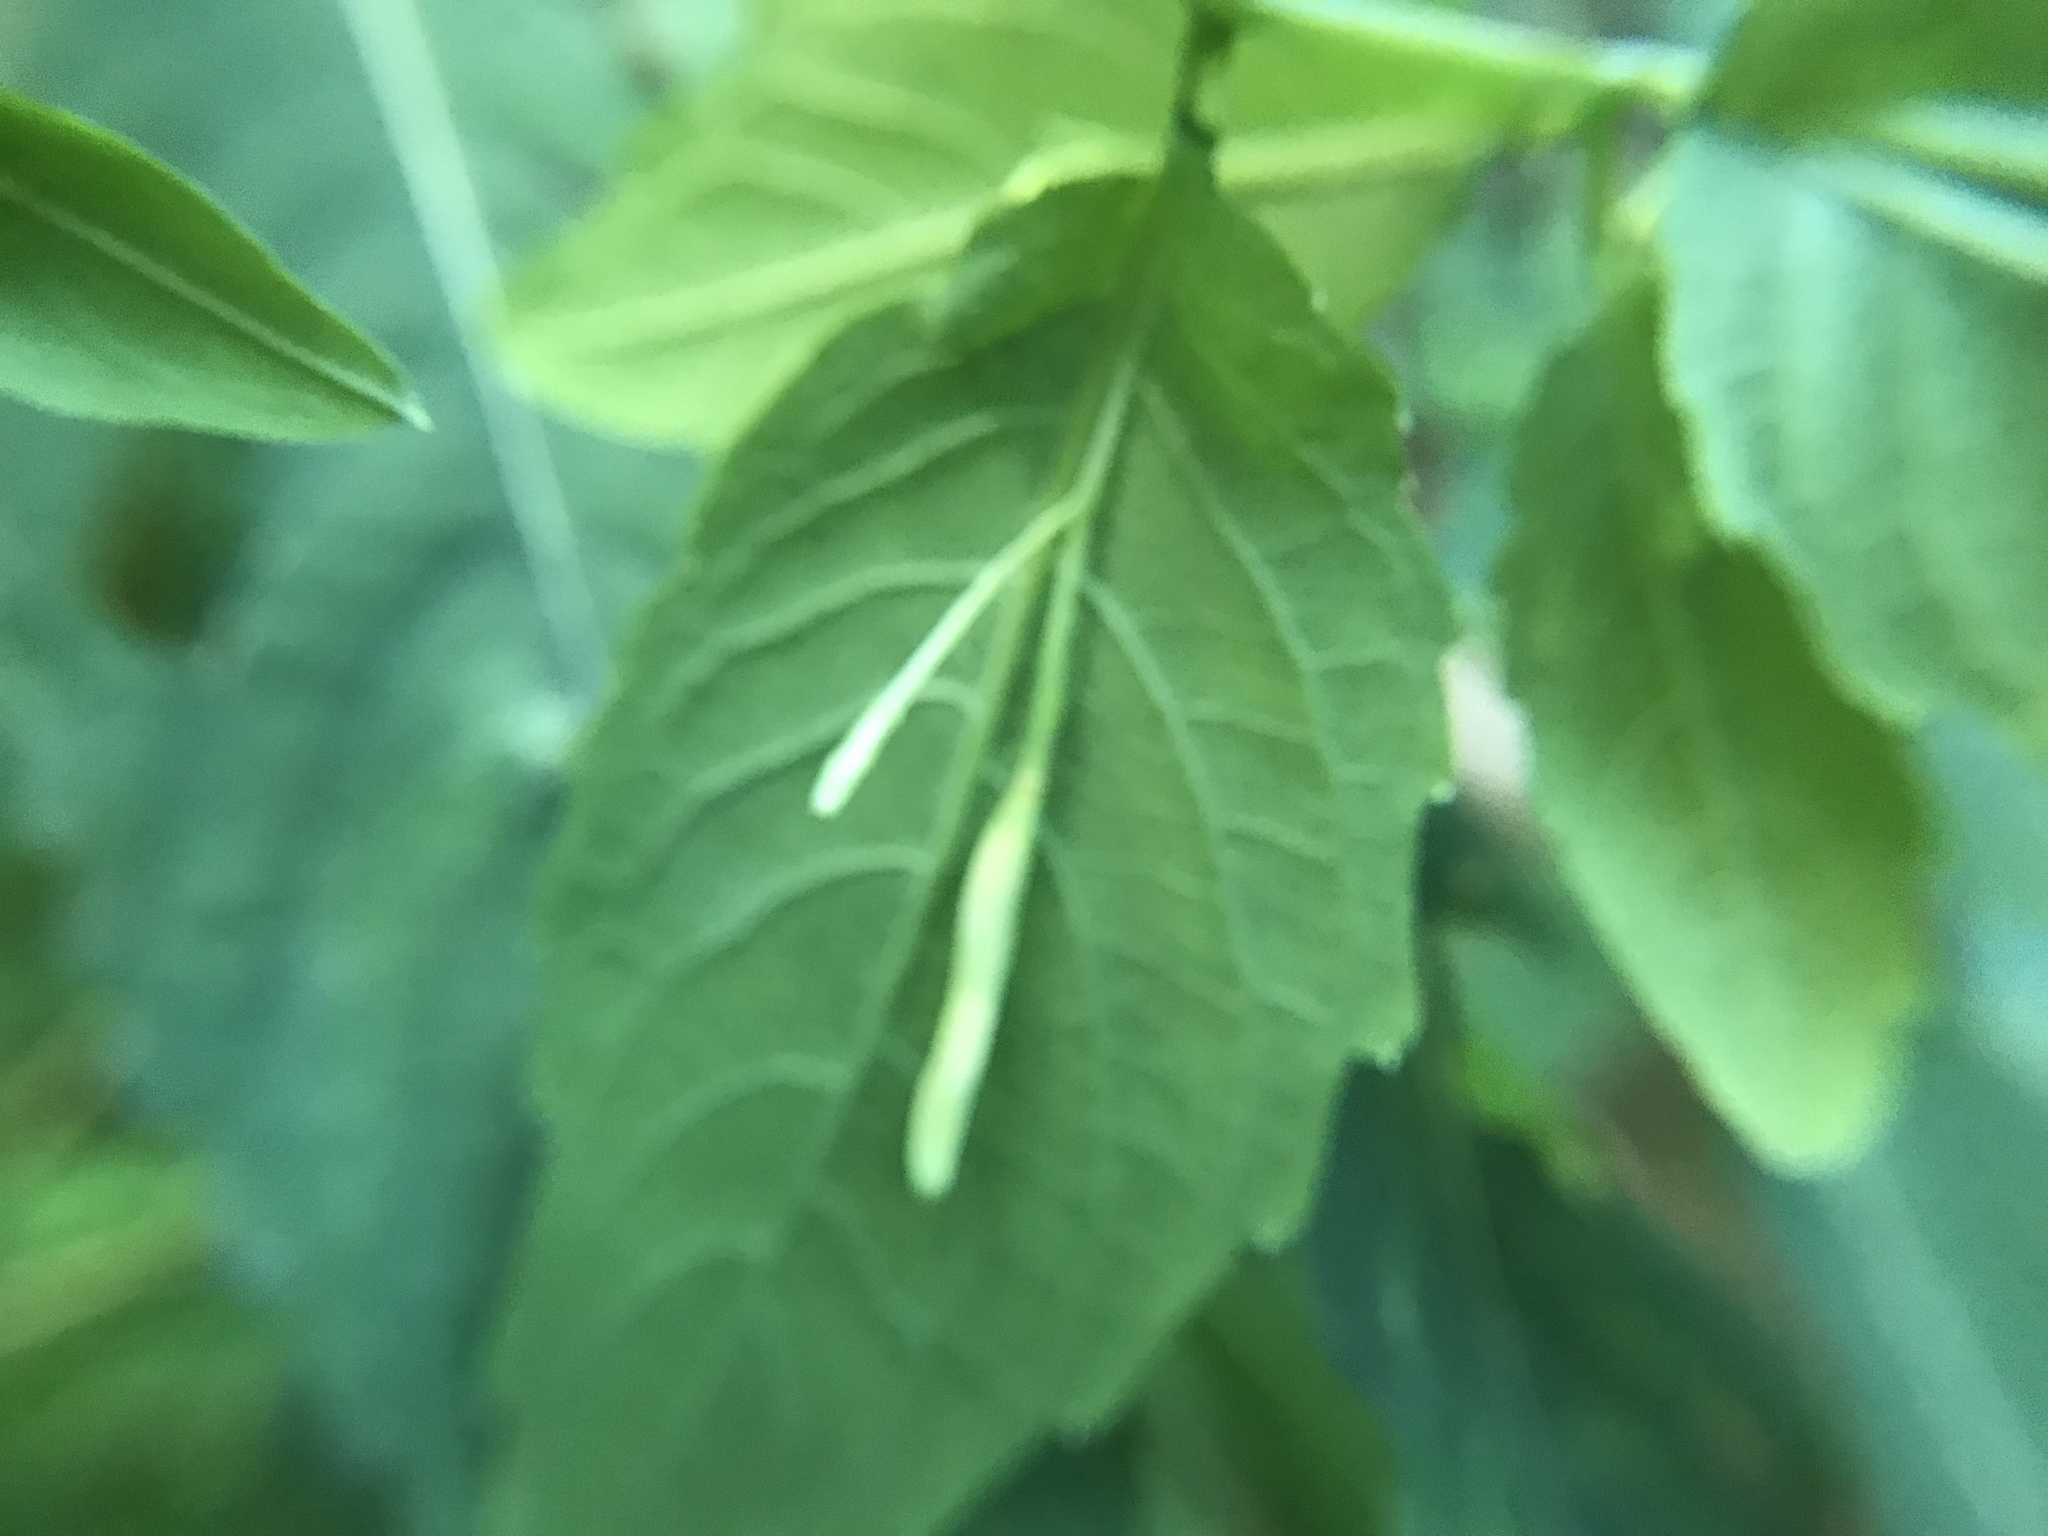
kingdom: Plantae
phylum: Tracheophyta
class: Magnoliopsida
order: Ericales
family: Balsaminaceae
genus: Impatiens
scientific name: Impatiens pallida
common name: Pale snapweed
